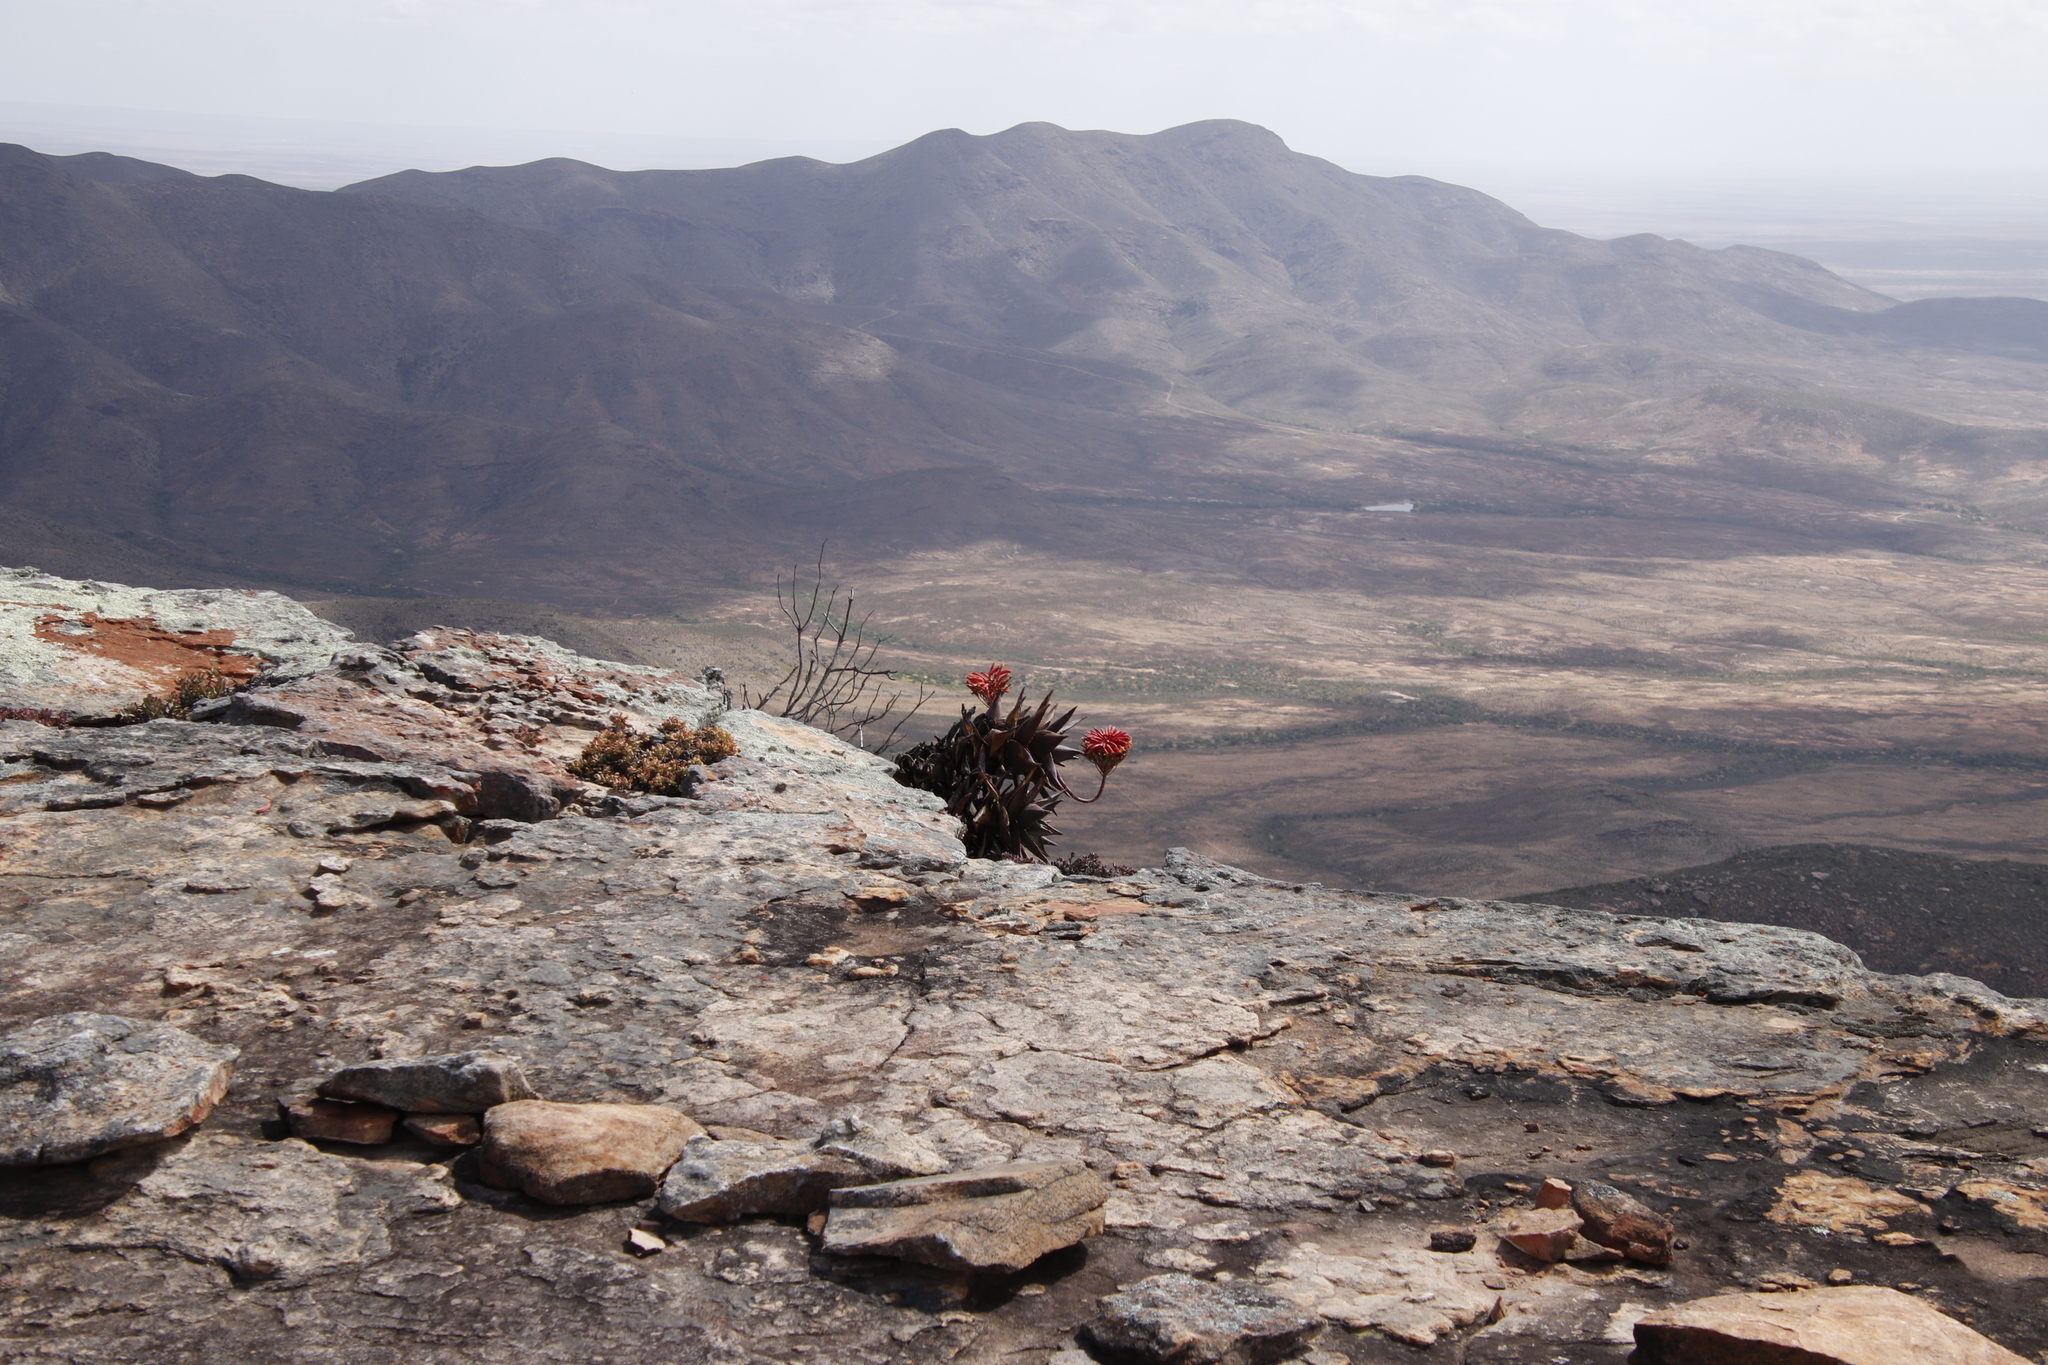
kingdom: Plantae
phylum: Tracheophyta
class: Liliopsida
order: Asparagales
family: Asphodelaceae
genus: Aloe
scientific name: Aloe perfoliata
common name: Mitra aloe
